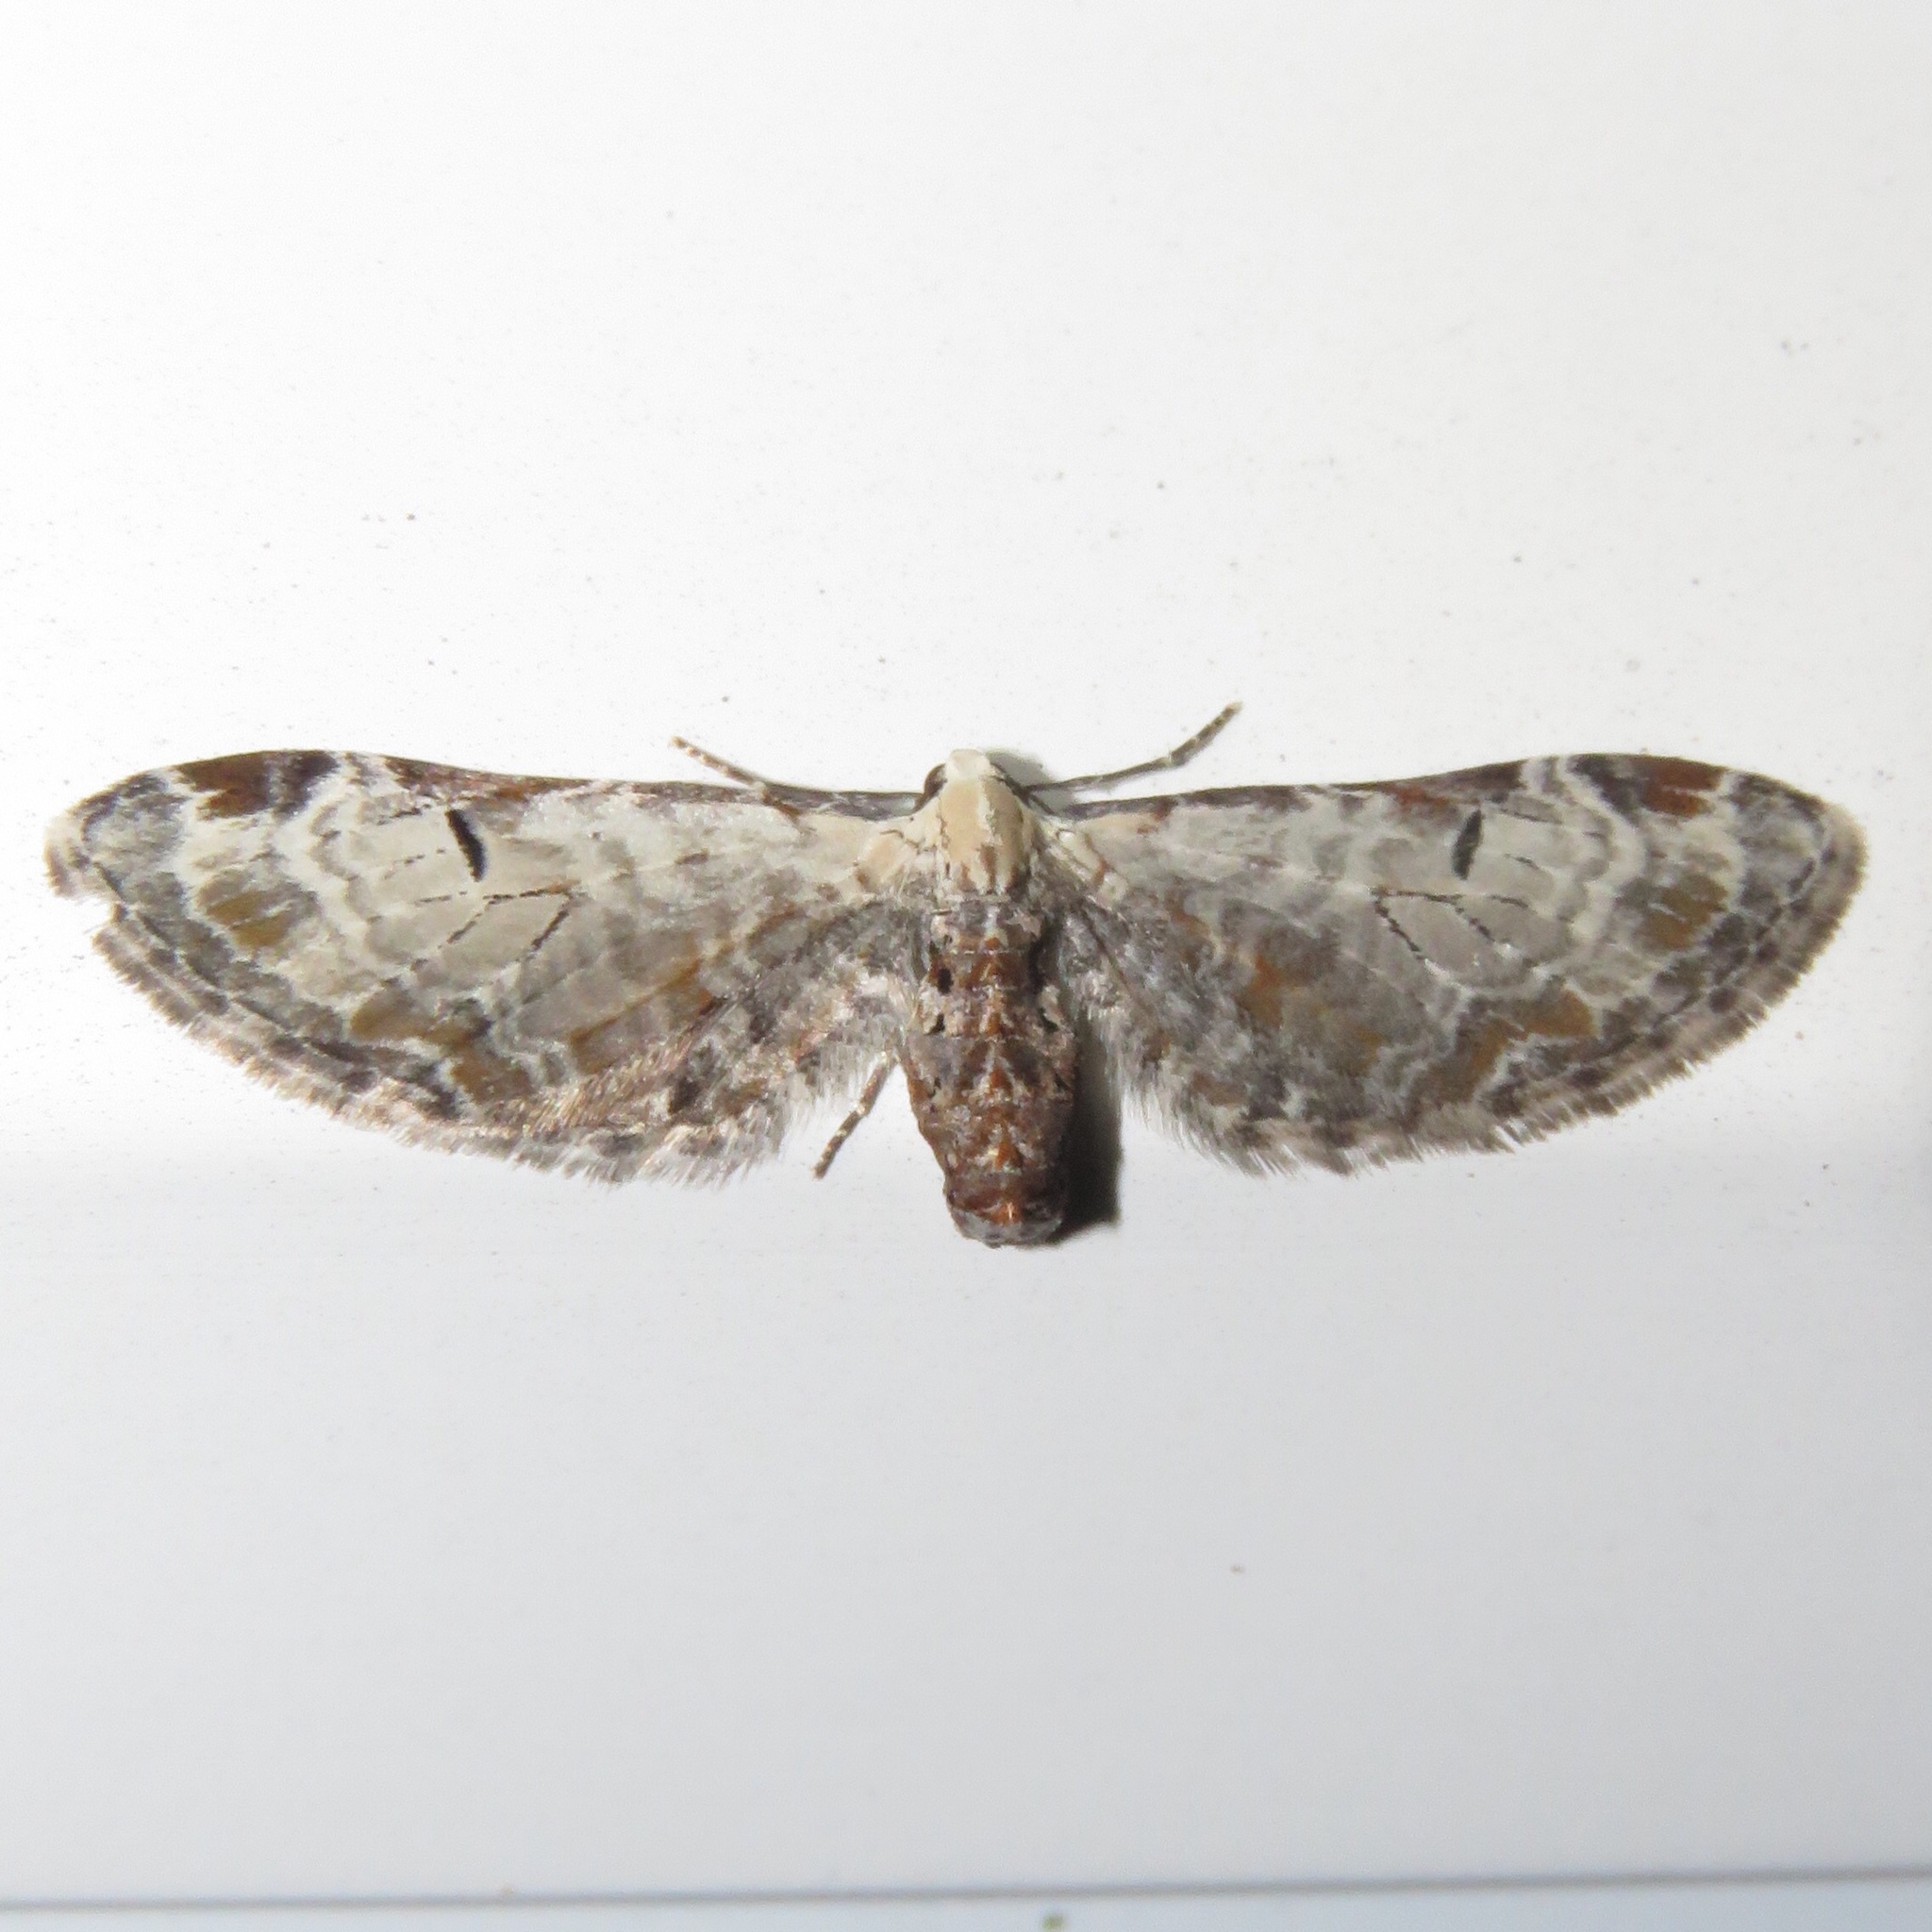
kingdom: Animalia
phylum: Arthropoda
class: Insecta
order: Lepidoptera
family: Geometridae
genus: Eupithecia
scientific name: Eupithecia ravocostaliata
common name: Great varigated pug
